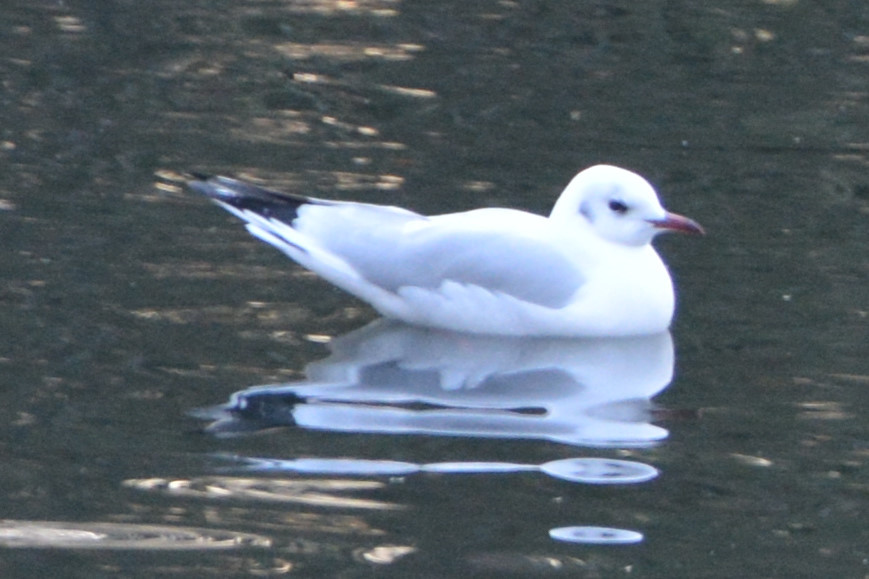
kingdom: Animalia
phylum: Chordata
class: Aves
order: Charadriiformes
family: Laridae
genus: Chroicocephalus
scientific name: Chroicocephalus ridibundus
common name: Black-headed gull
